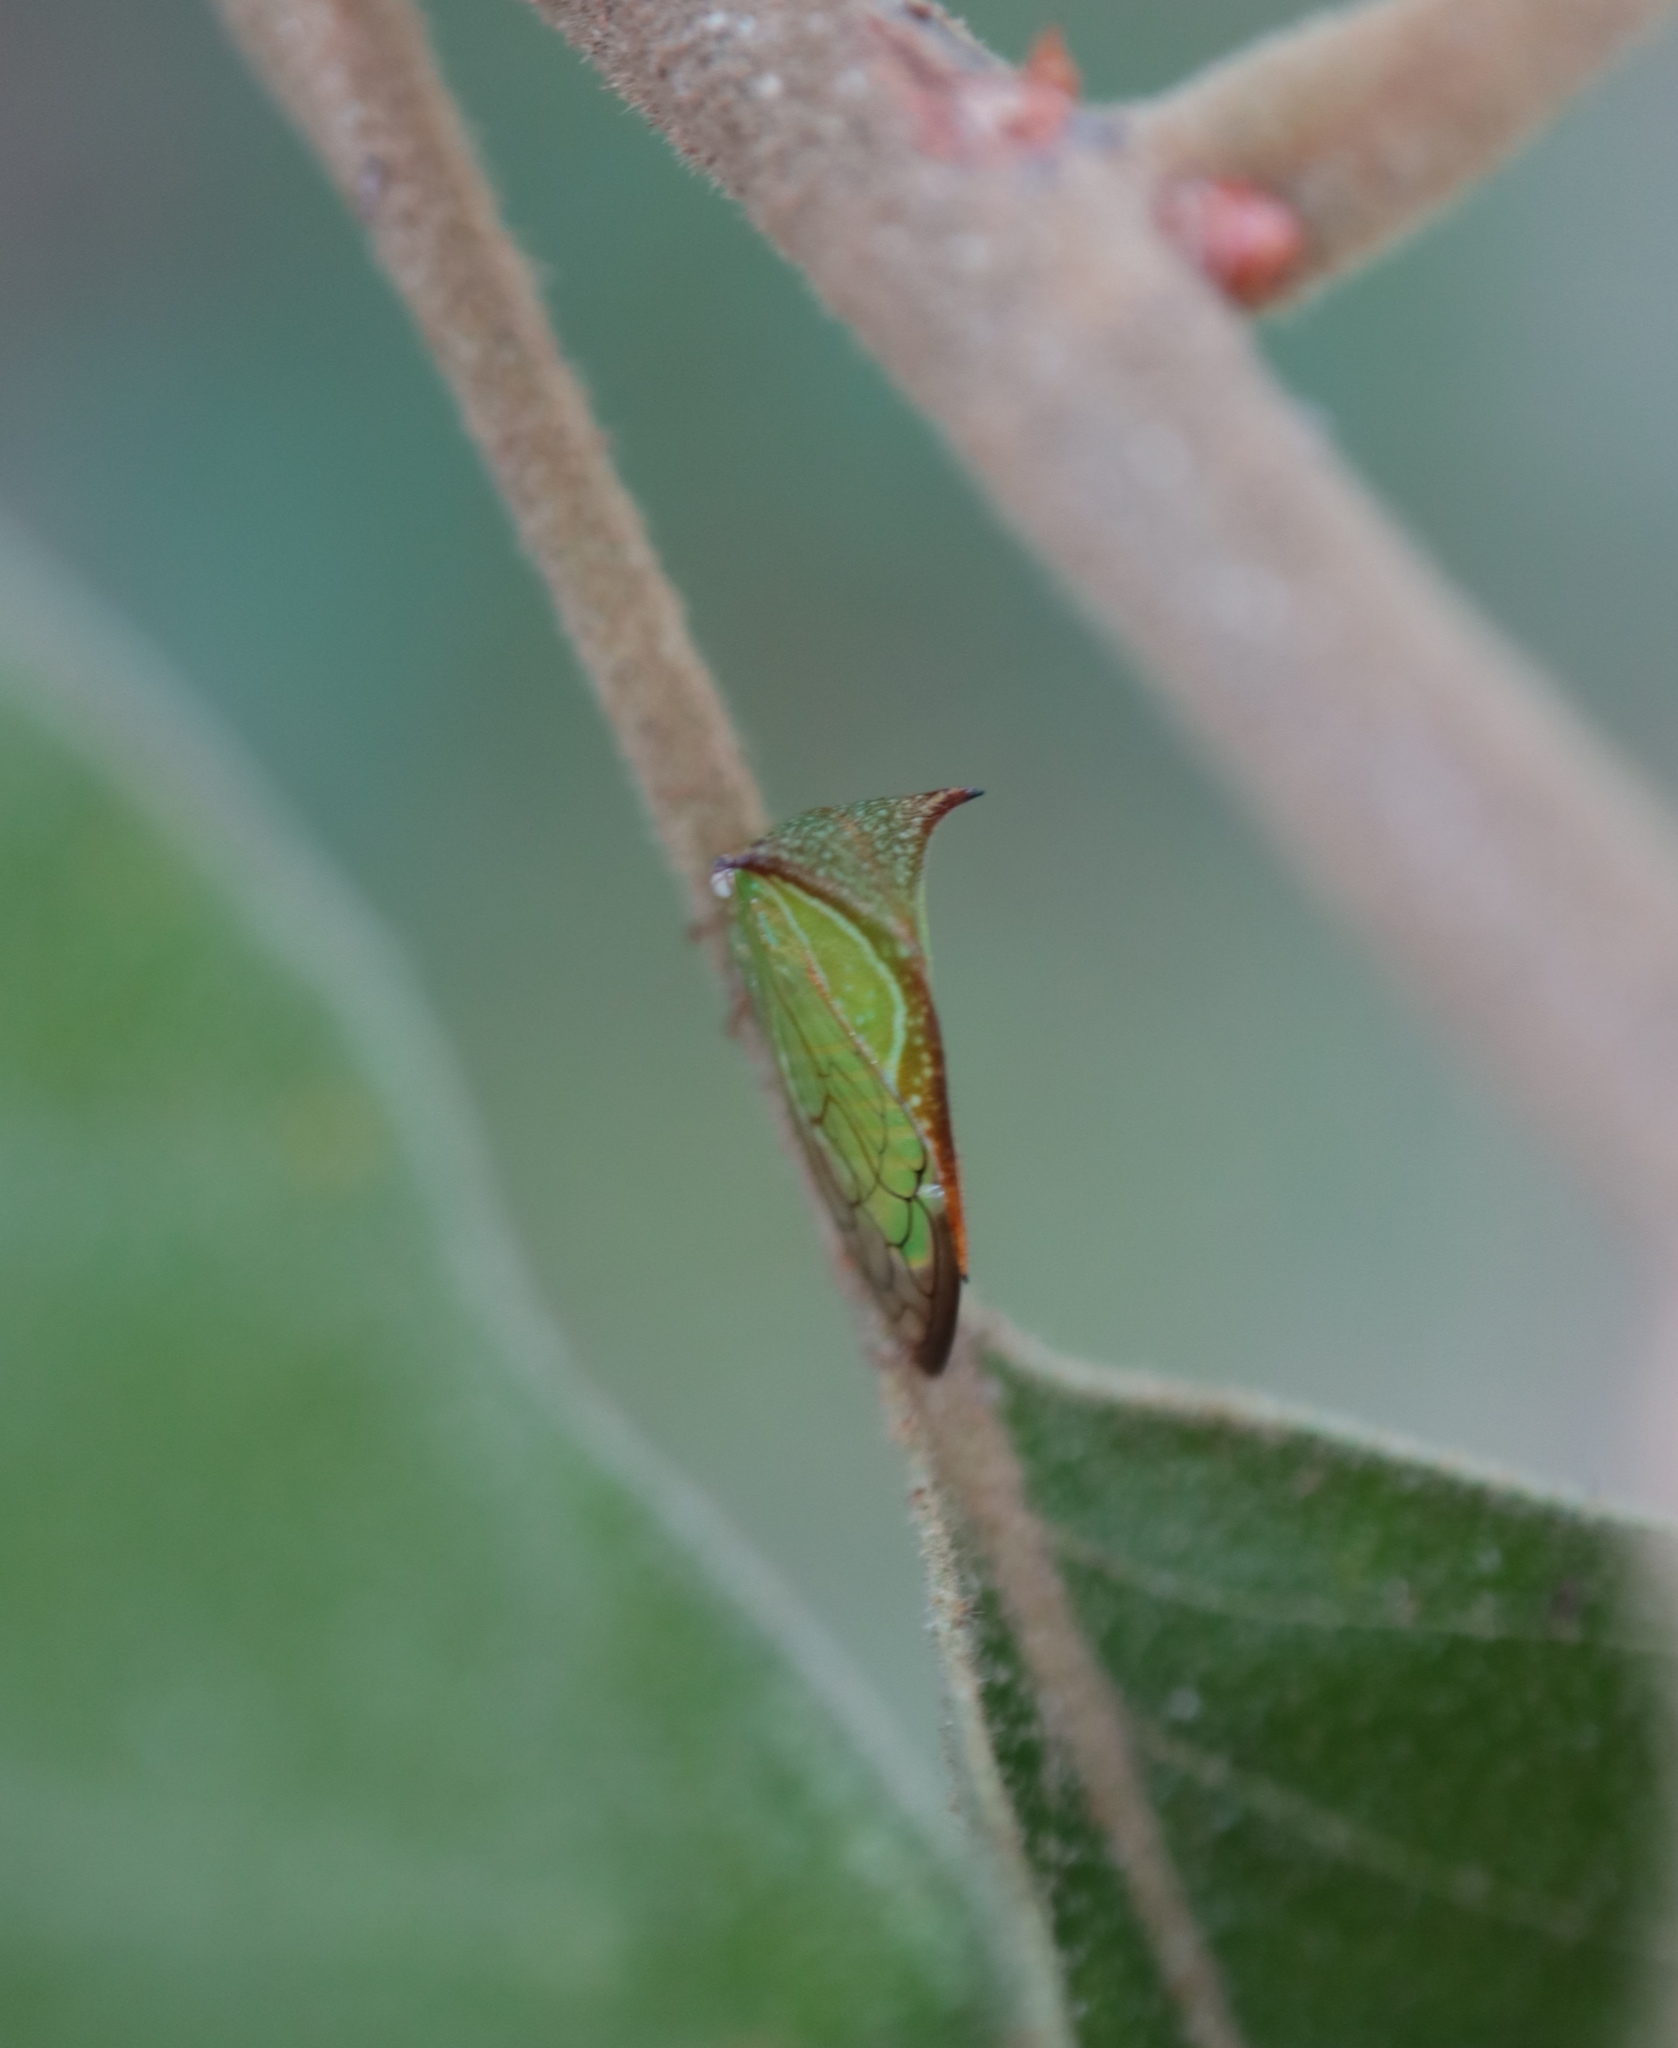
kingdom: Animalia
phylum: Arthropoda
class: Insecta
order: Hemiptera
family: Membracidae
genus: Stictolobus
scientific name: Stictolobus borealis
